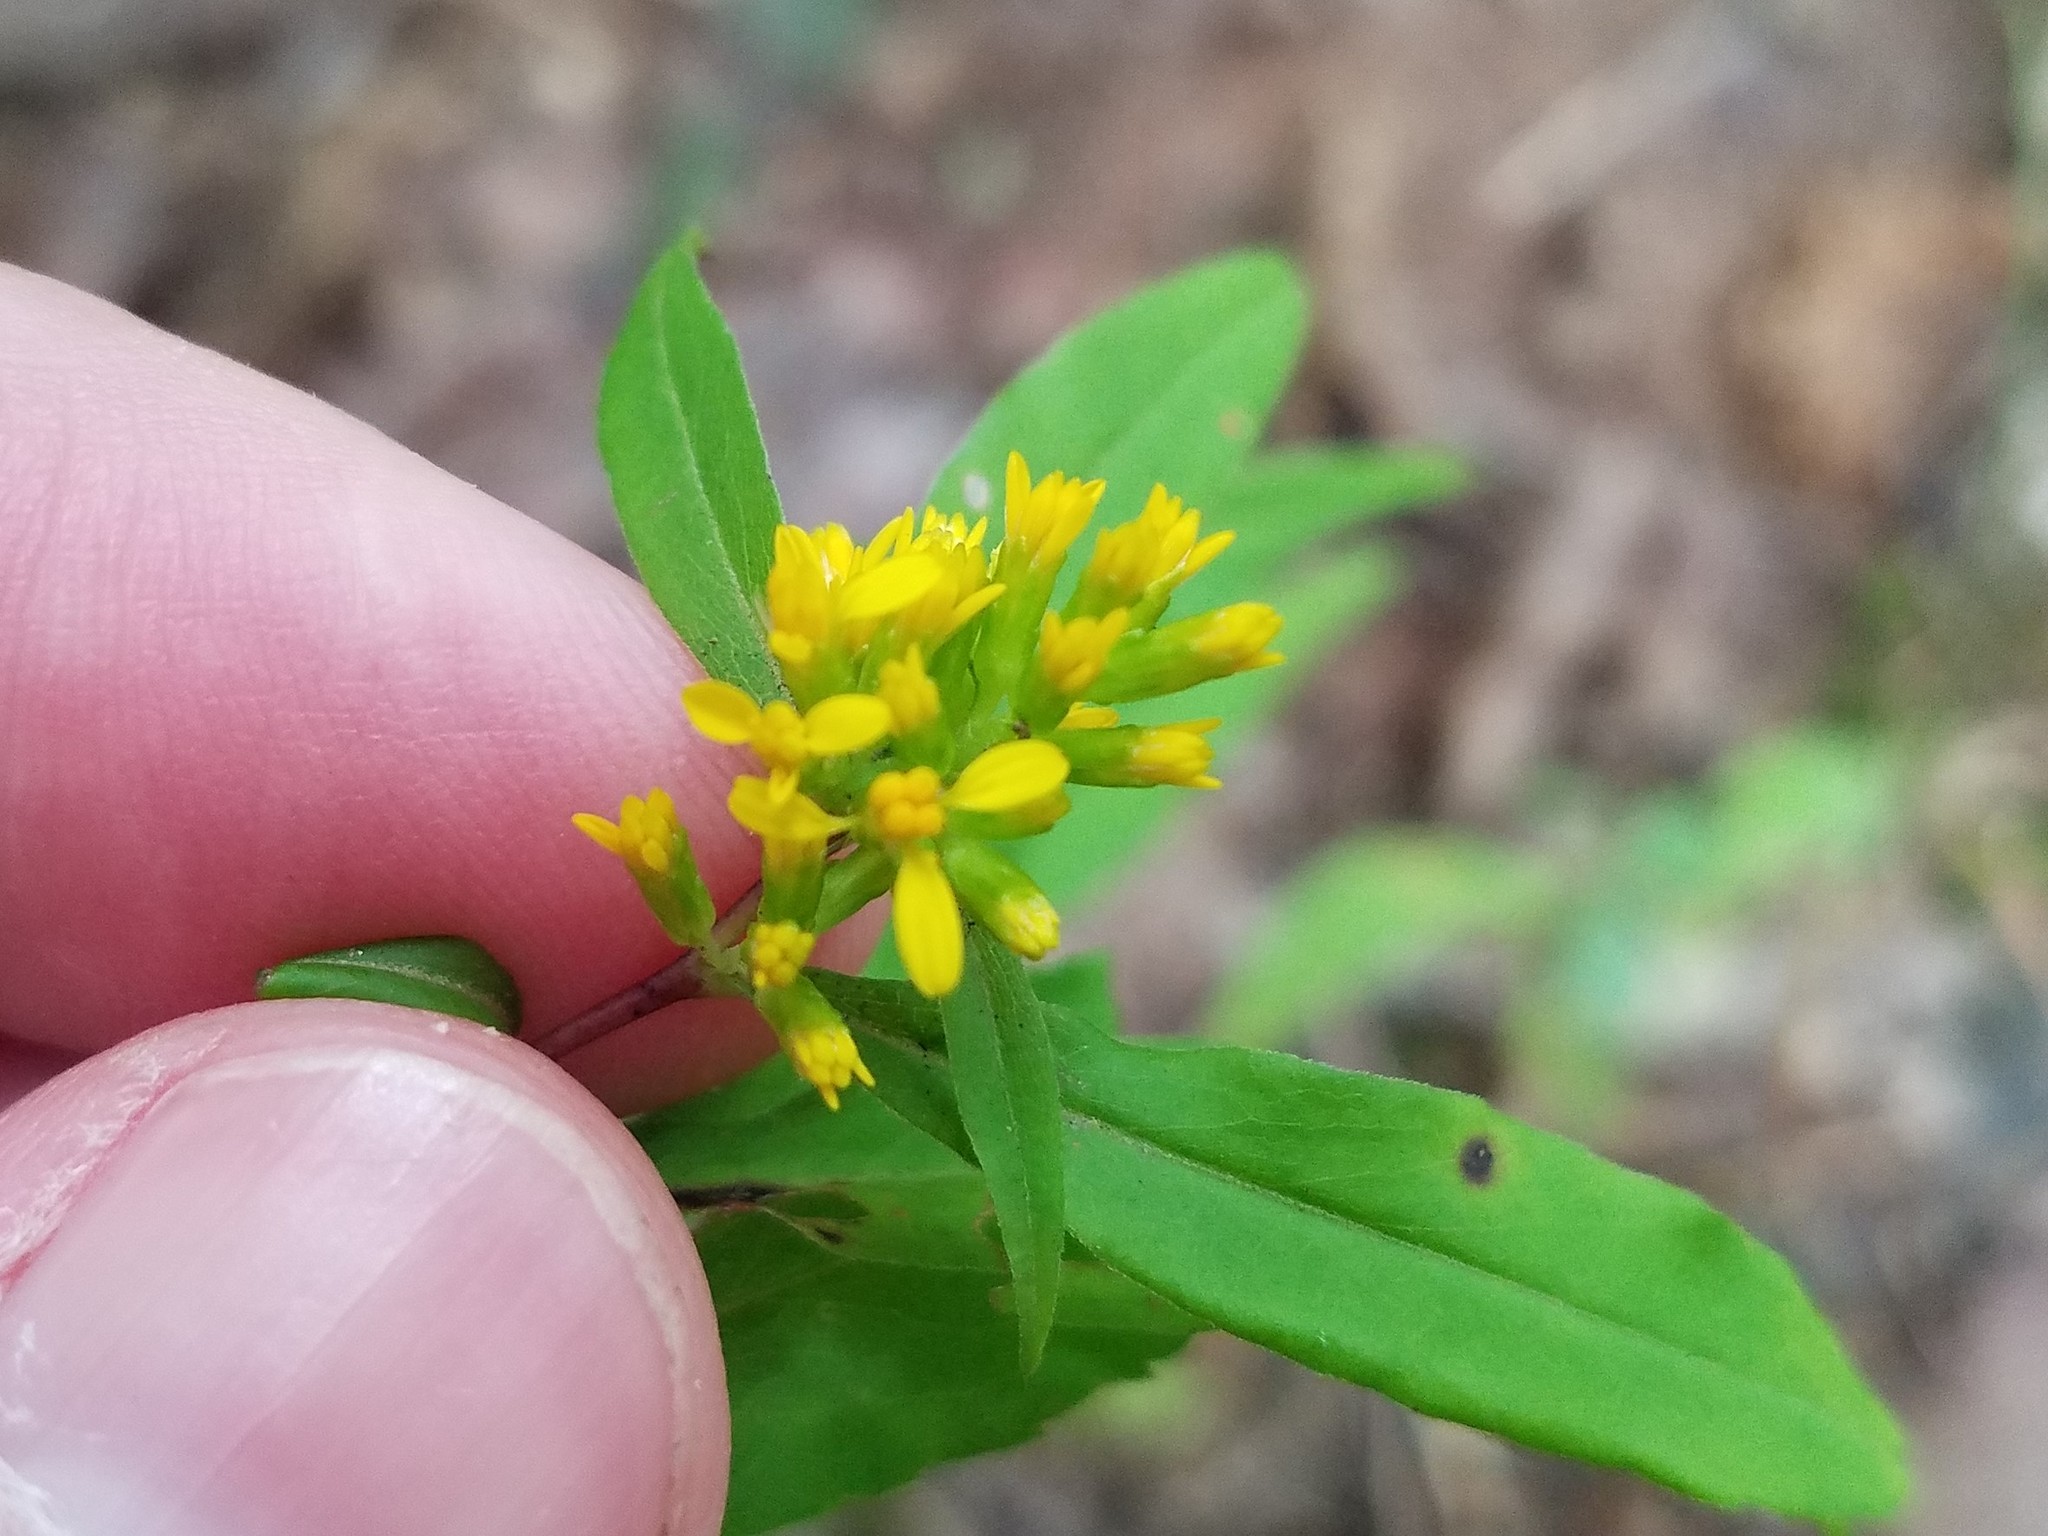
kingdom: Plantae
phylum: Tracheophyta
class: Magnoliopsida
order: Asterales
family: Asteraceae
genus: Solidago
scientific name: Solidago caesia
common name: Woodland goldenrod
